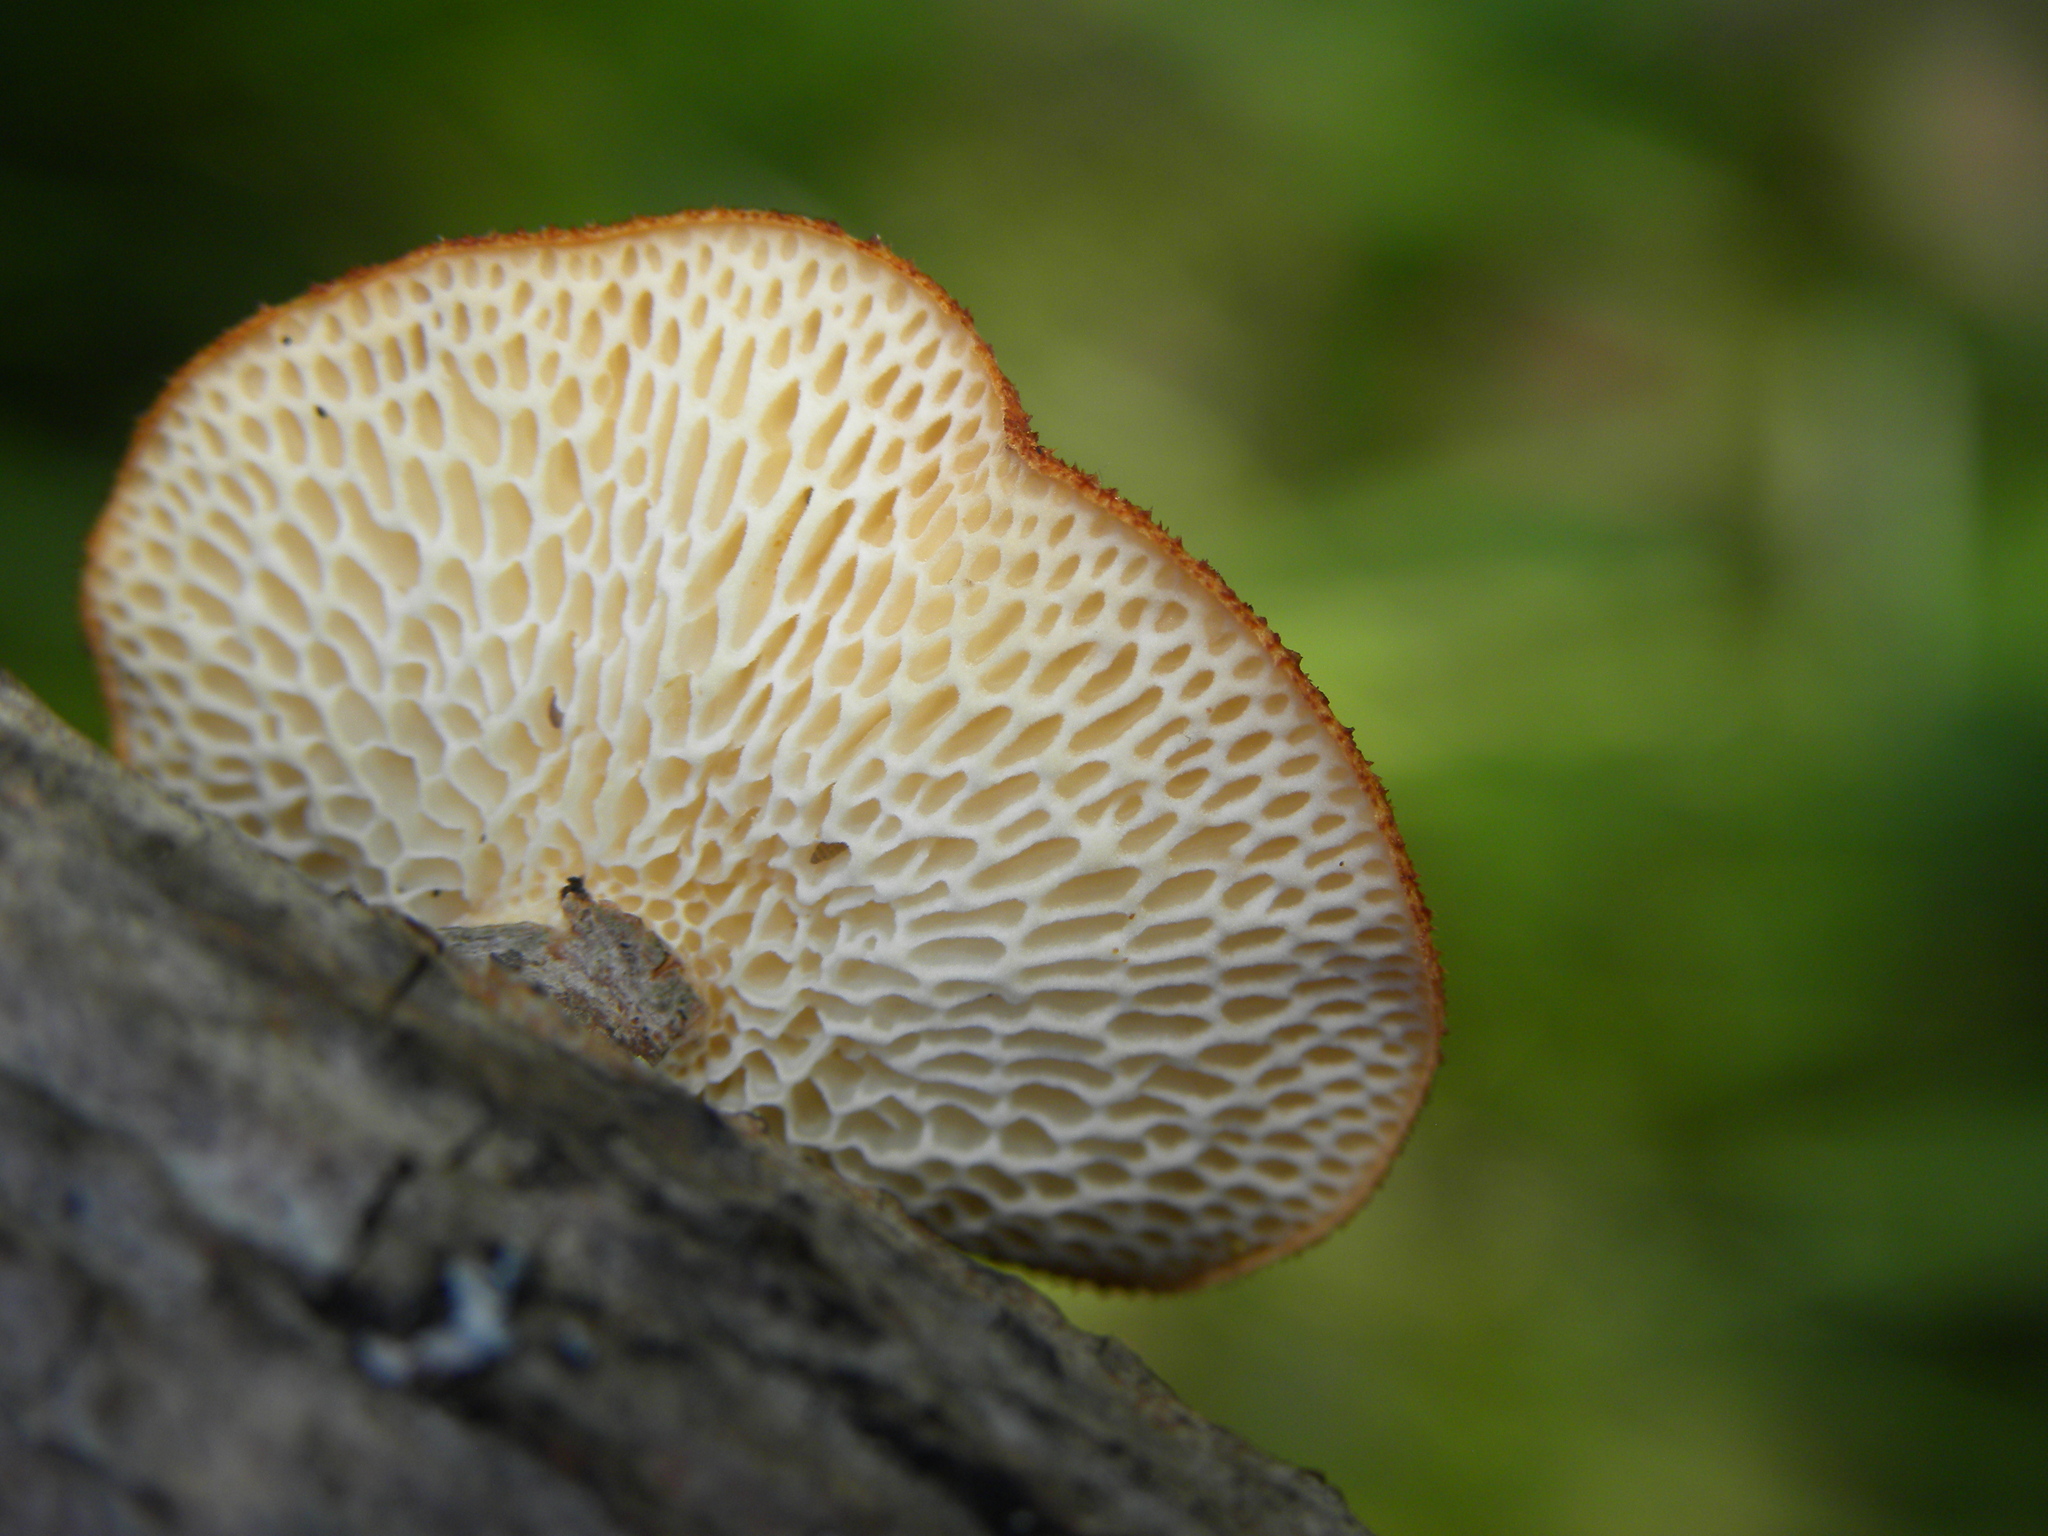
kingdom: Fungi
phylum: Basidiomycota
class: Agaricomycetes
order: Polyporales
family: Polyporaceae
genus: Neofavolus
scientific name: Neofavolus alveolaris
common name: Hexagonal-pored polypore
